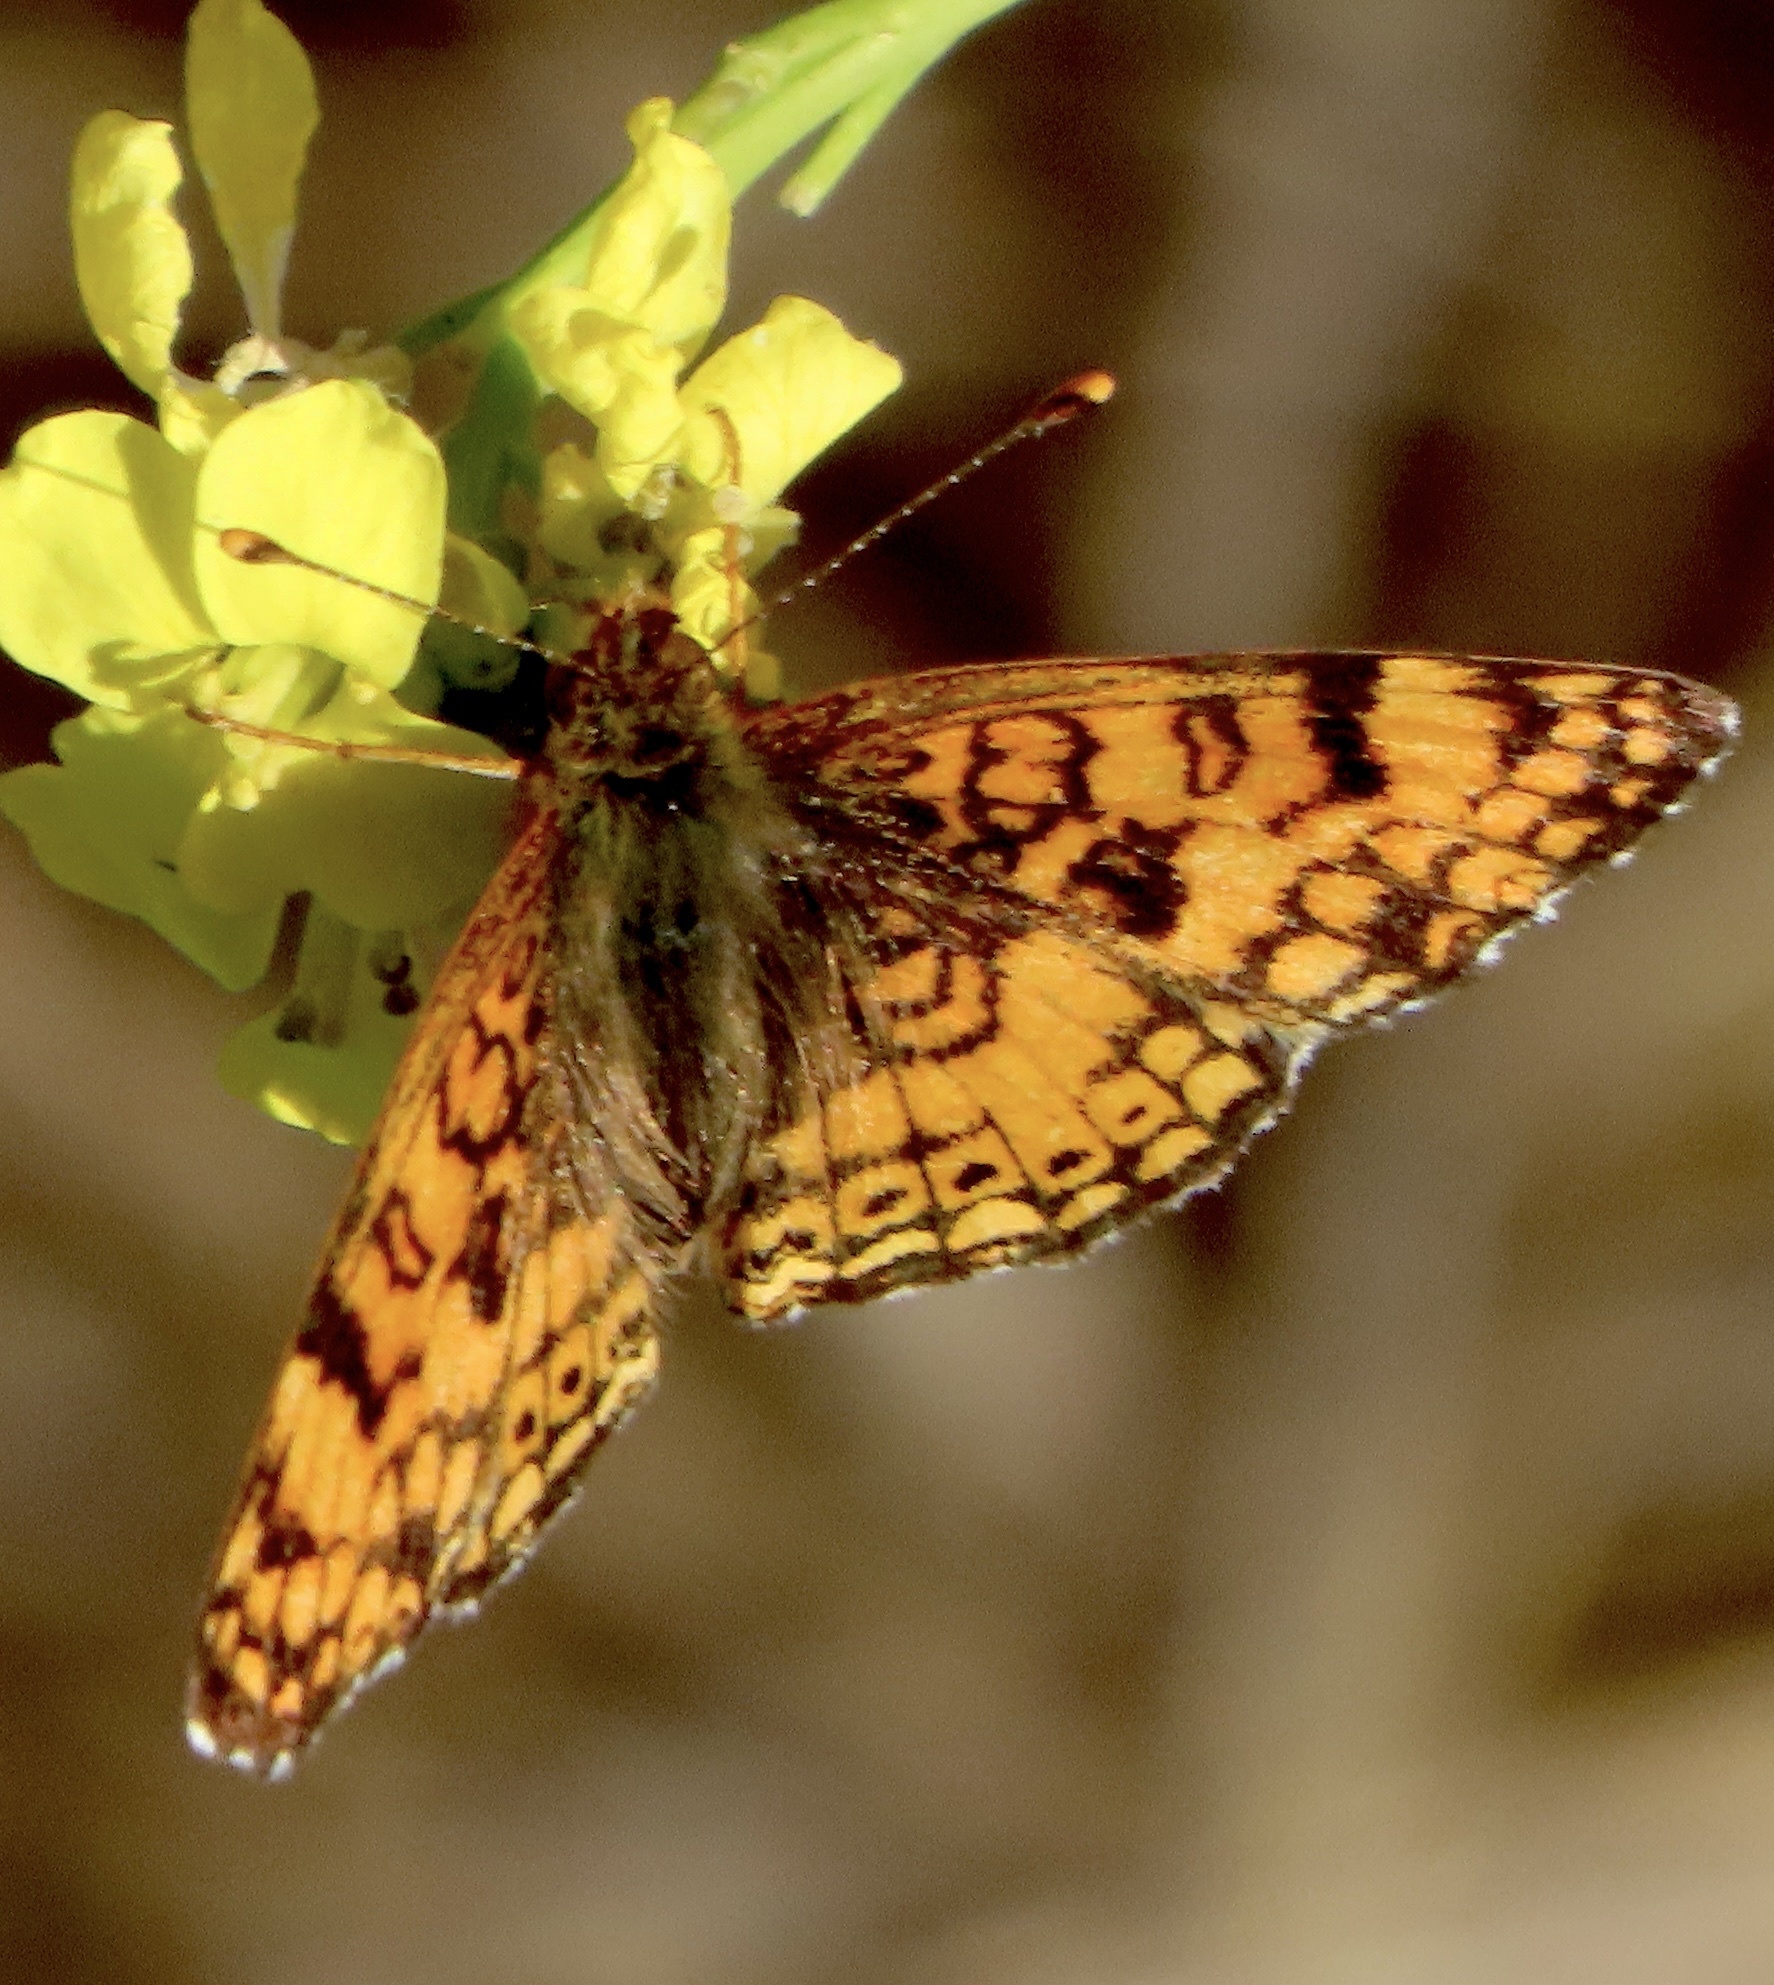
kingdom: Plantae
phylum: Tracheophyta
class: Magnoliopsida
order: Brassicales
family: Brassicaceae
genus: Hirschfeldia
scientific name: Hirschfeldia incana
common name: Hoary mustard
